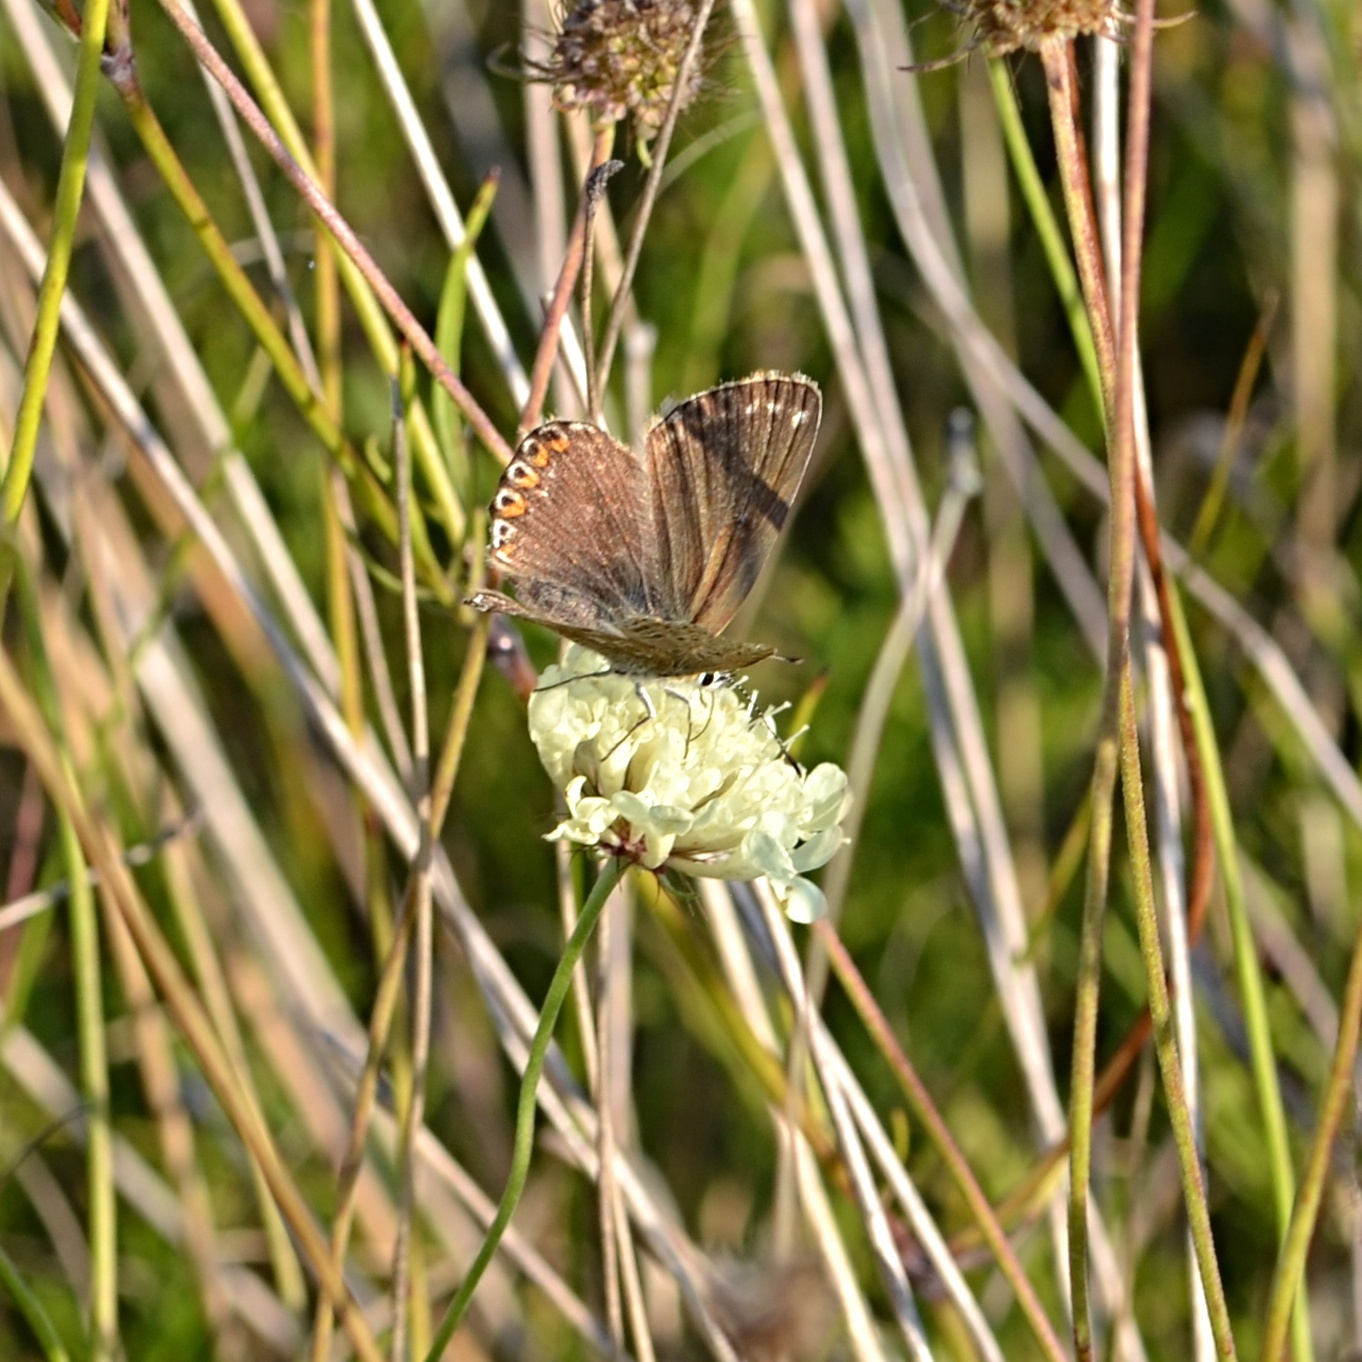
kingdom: Animalia
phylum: Arthropoda
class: Insecta
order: Lepidoptera
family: Lycaenidae
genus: Lysandra
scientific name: Lysandra coridon
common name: Chalkhill blue
